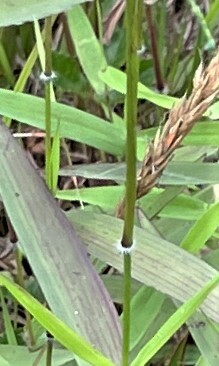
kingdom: Plantae
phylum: Tracheophyta
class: Liliopsida
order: Poales
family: Poaceae
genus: Dichanthelium
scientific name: Dichanthelium acuminatum
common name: Hairy panic grass
